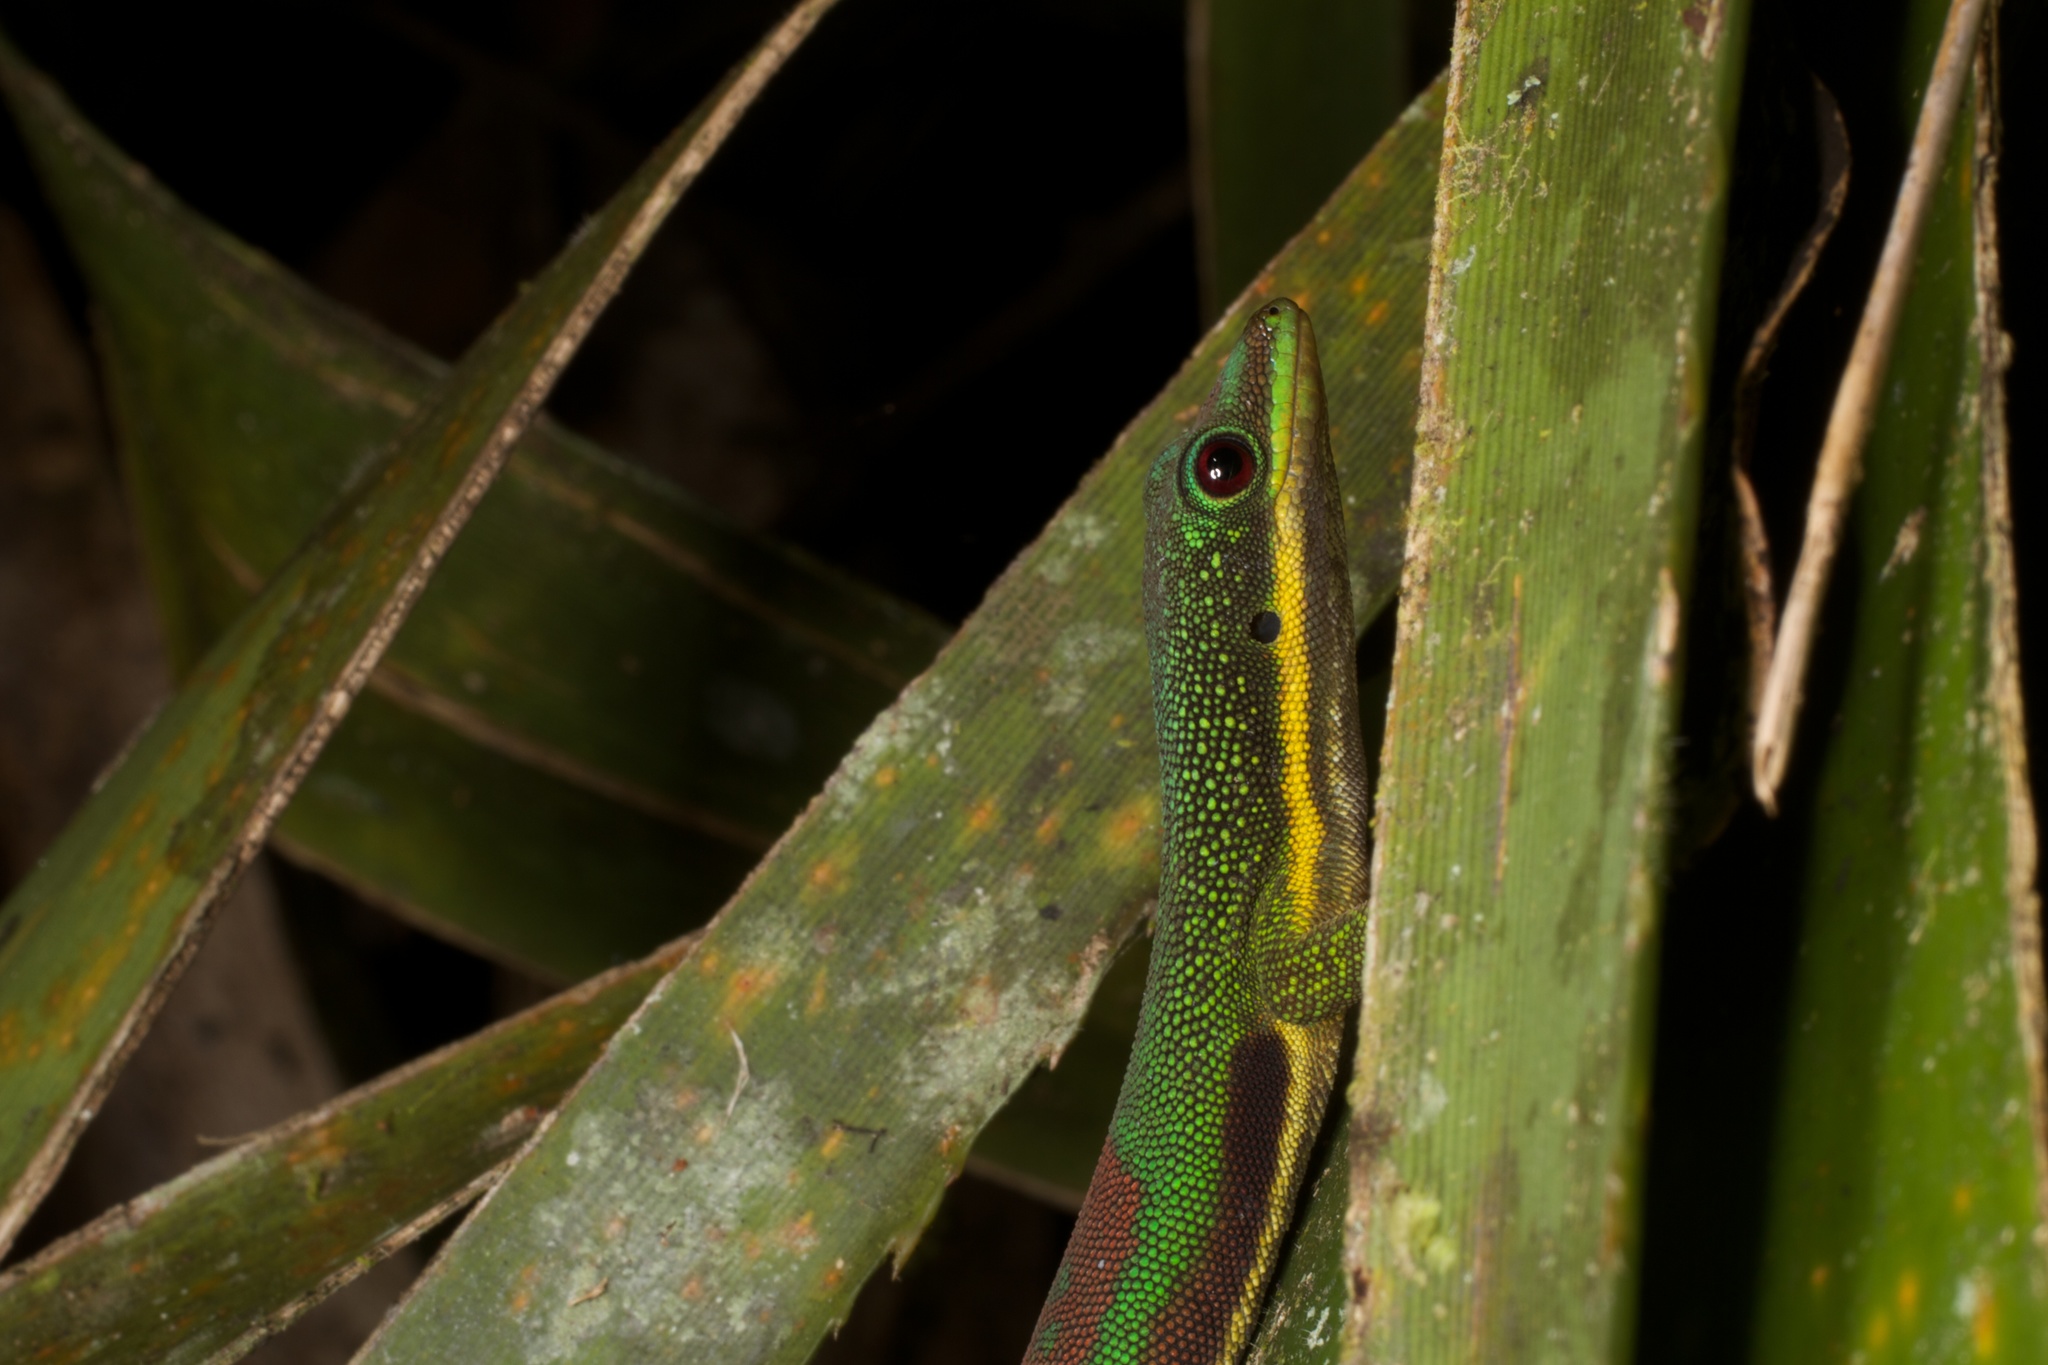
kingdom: Animalia
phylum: Chordata
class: Squamata
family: Gekkonidae
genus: Phelsuma
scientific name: Phelsuma lineata
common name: Lined day gecko
